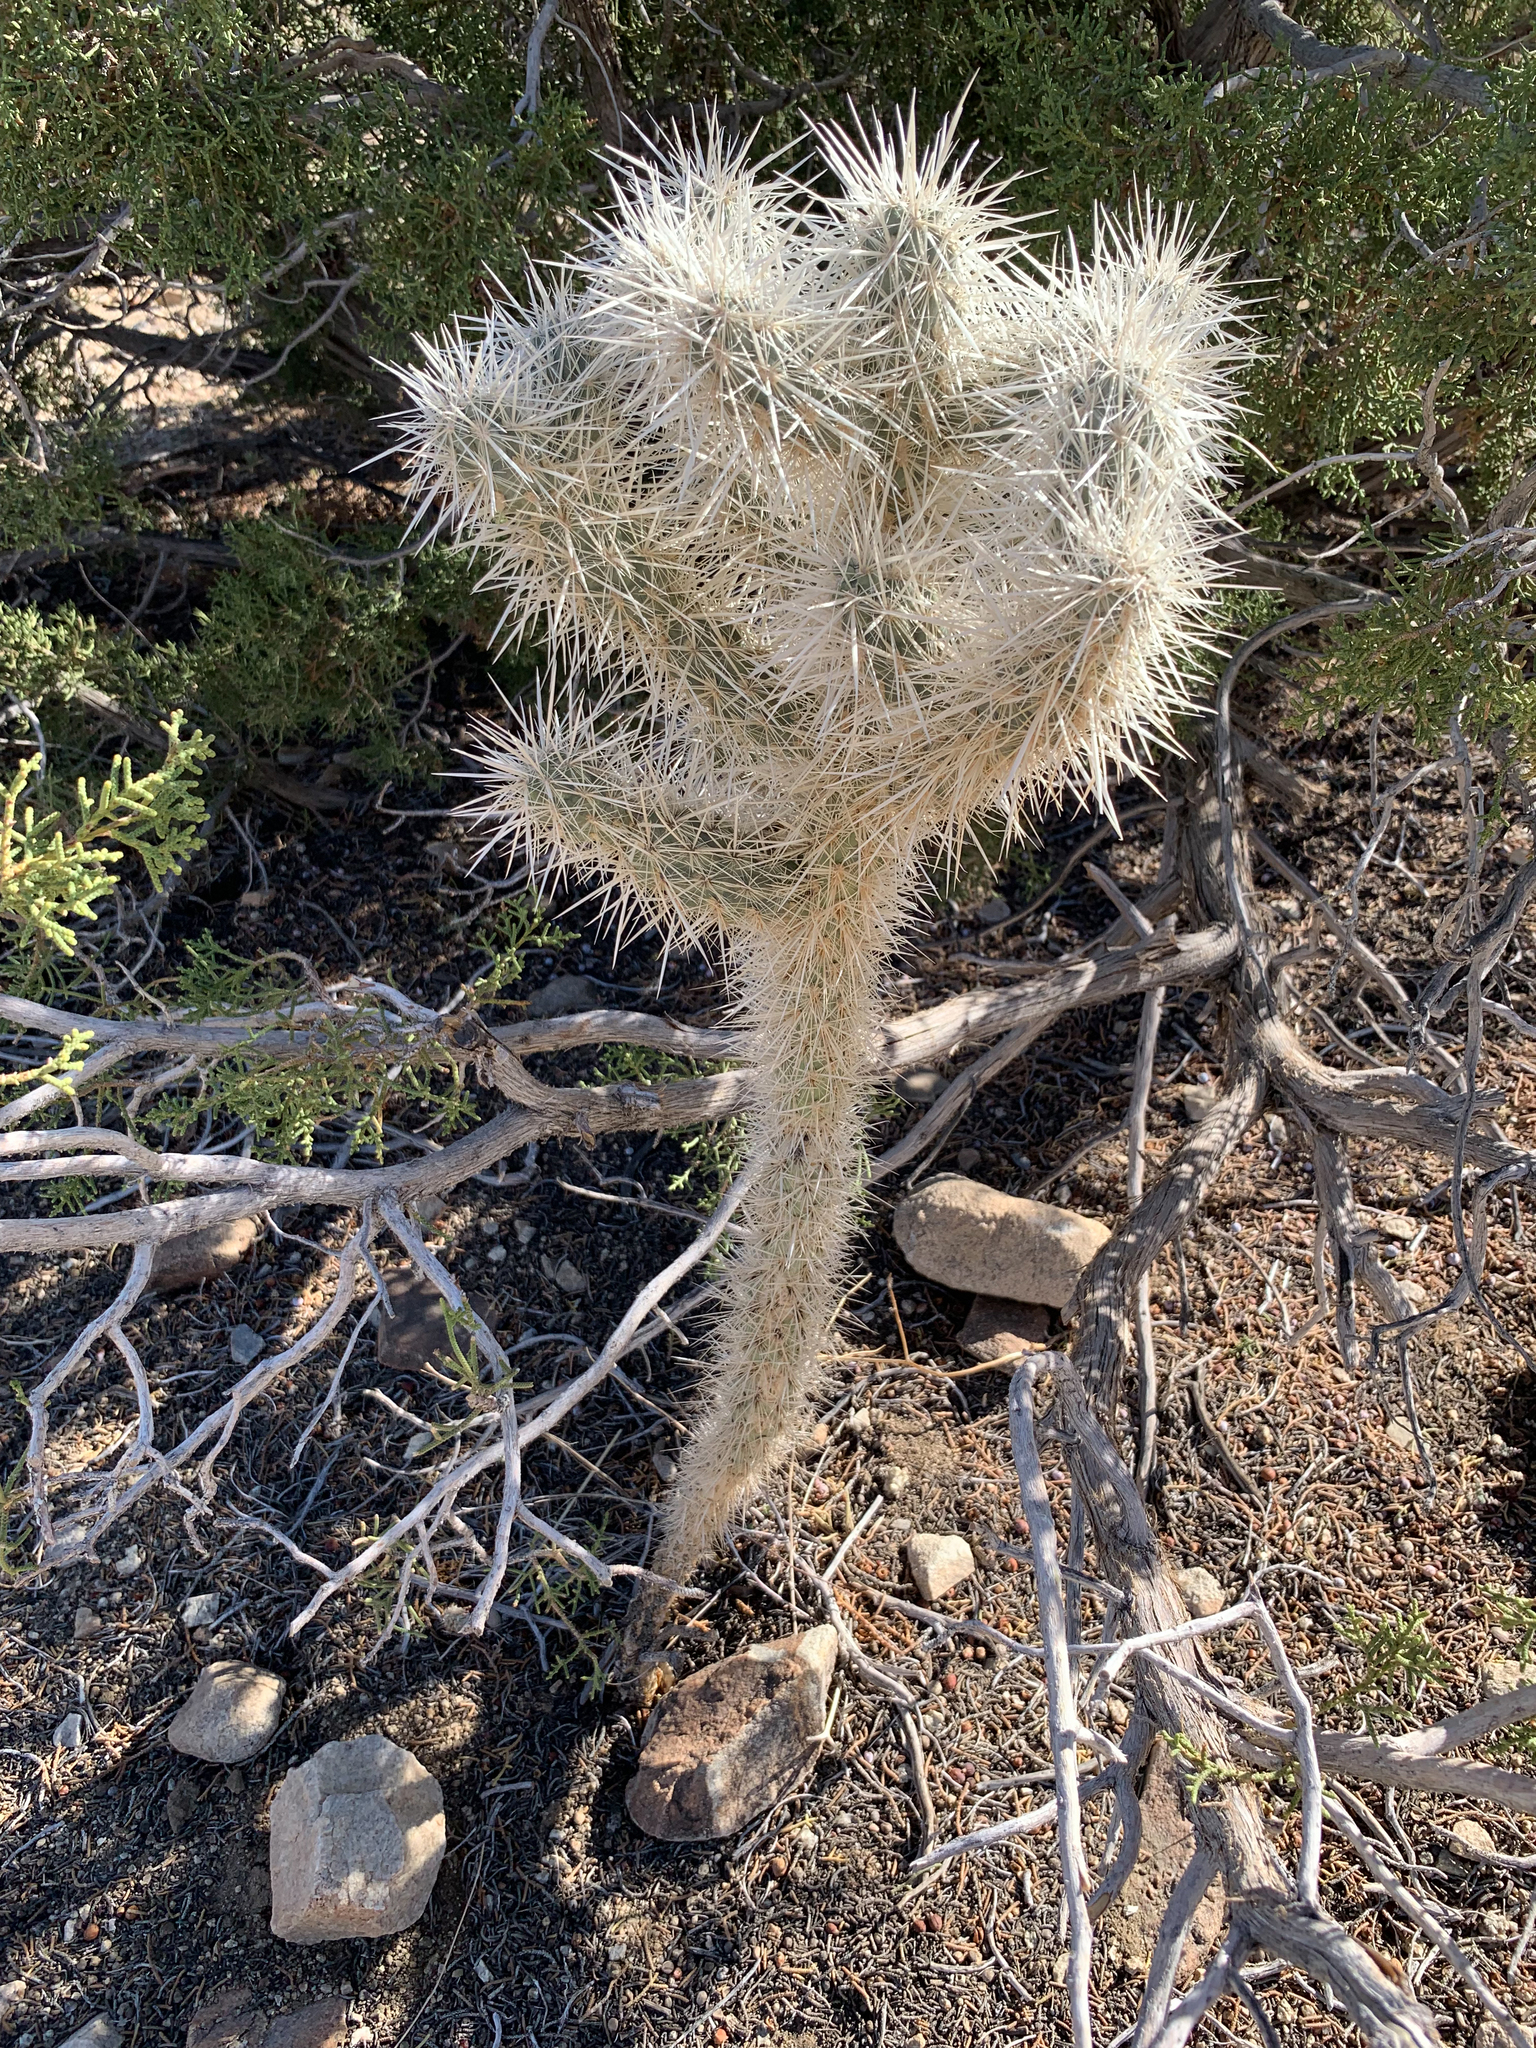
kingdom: Plantae
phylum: Tracheophyta
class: Magnoliopsida
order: Caryophyllales
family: Cactaceae
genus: Cylindropuntia
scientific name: Cylindropuntia echinocarpa
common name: Ground cholla
